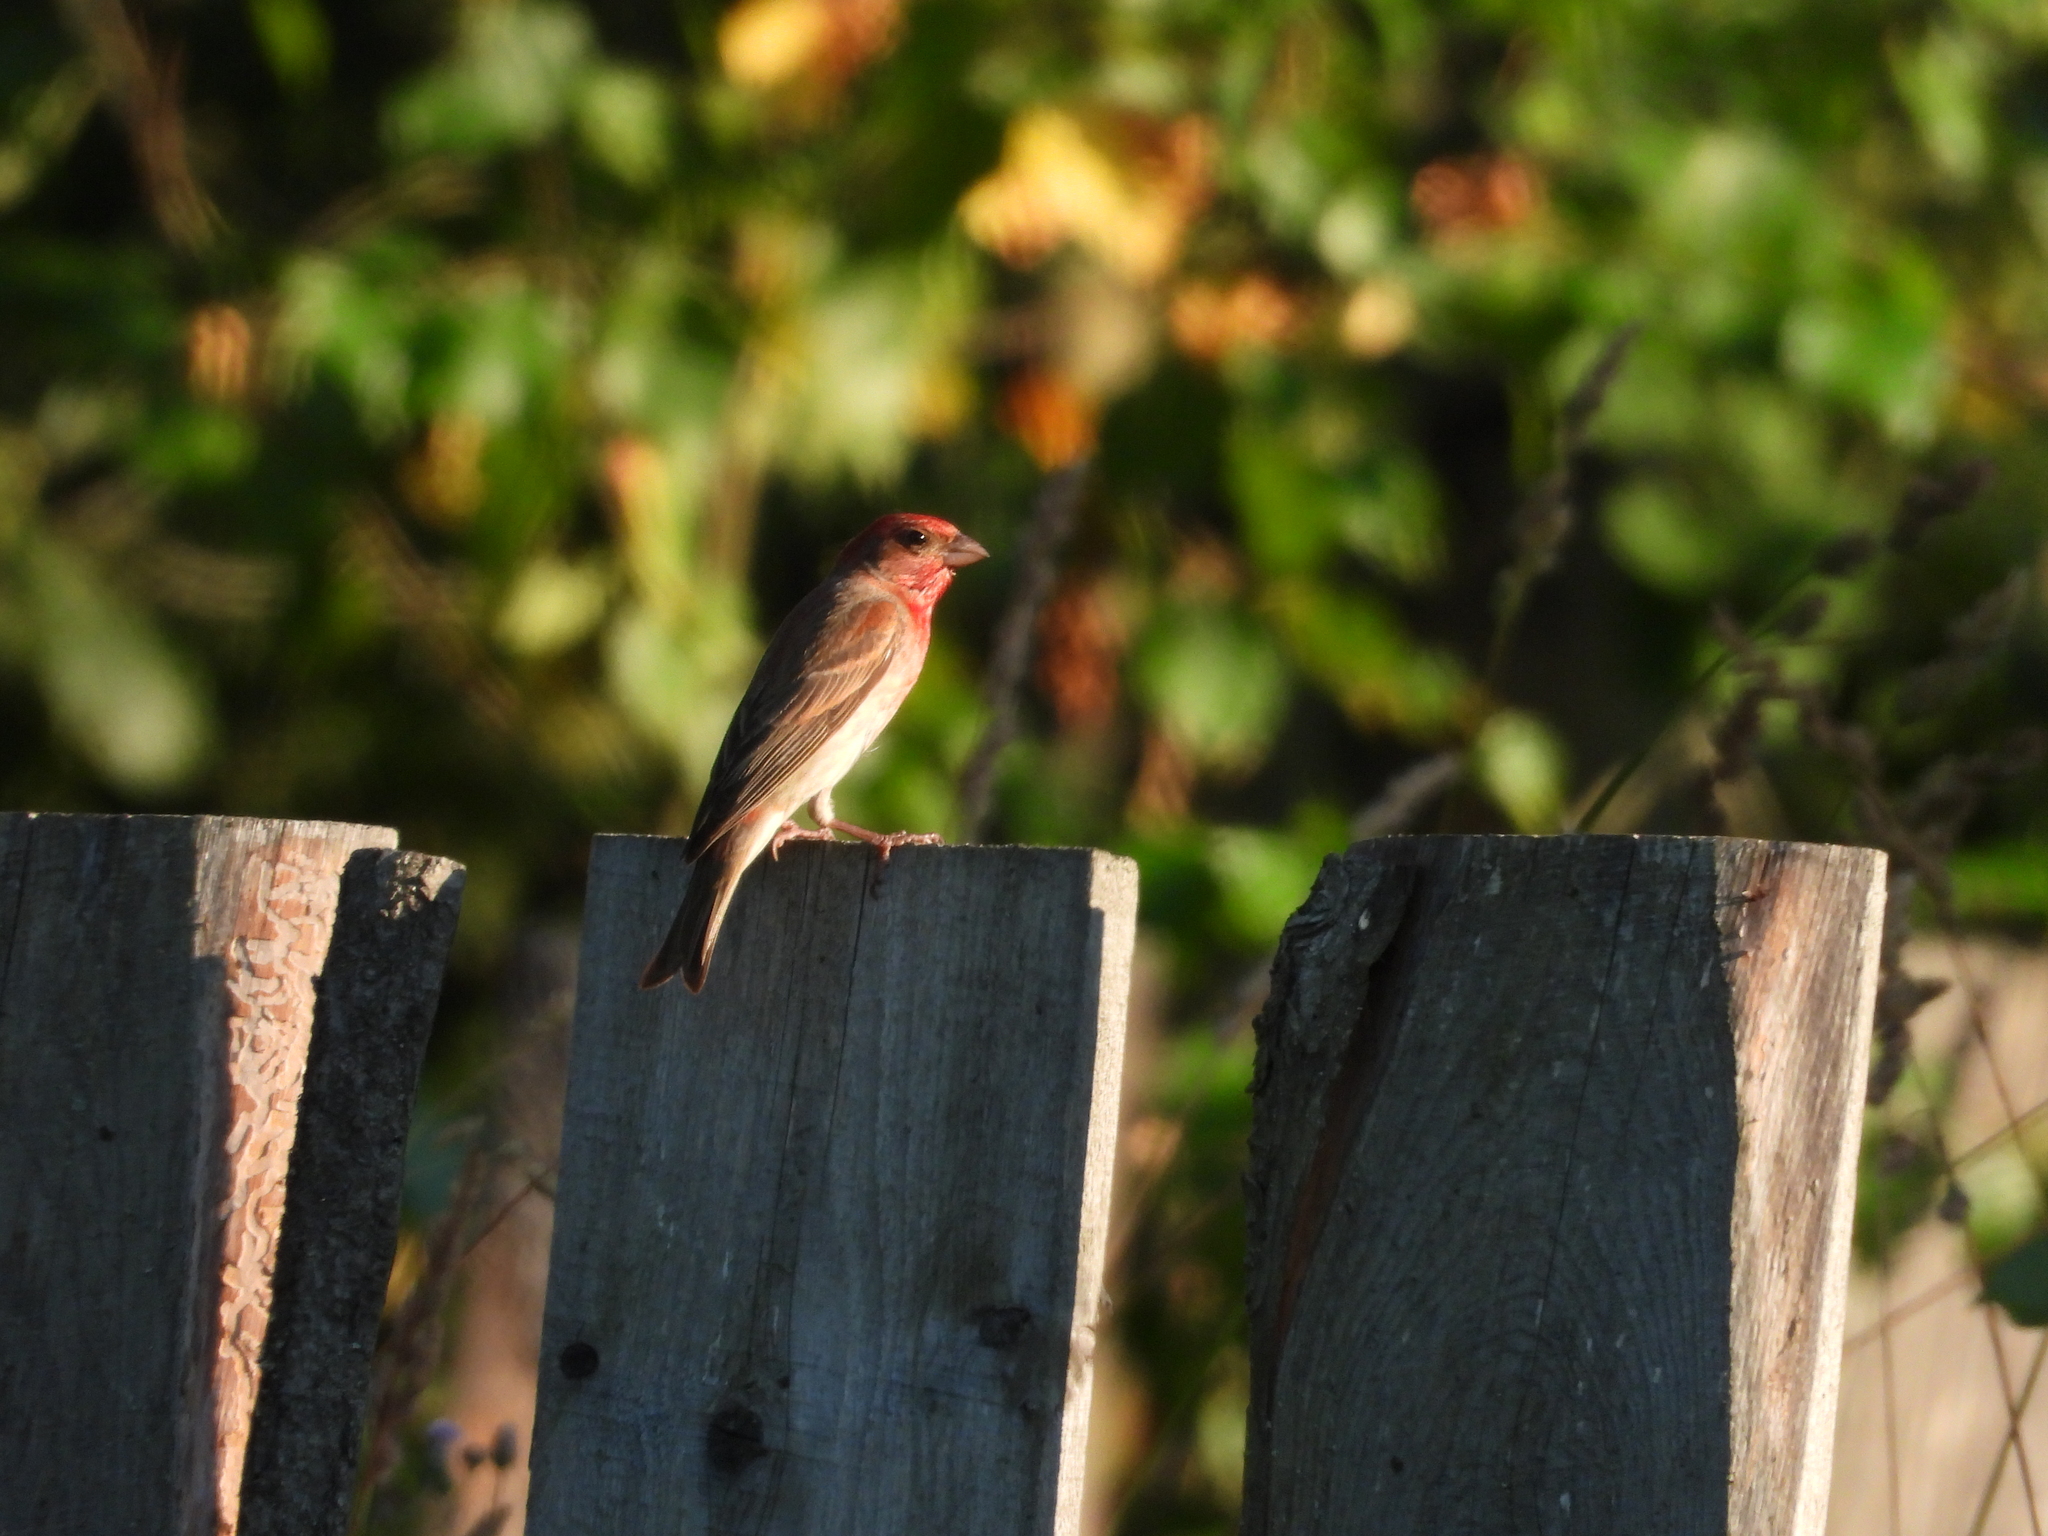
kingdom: Animalia
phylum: Chordata
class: Aves
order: Passeriformes
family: Fringillidae
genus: Carpodacus
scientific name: Carpodacus erythrinus
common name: Common rosefinch
